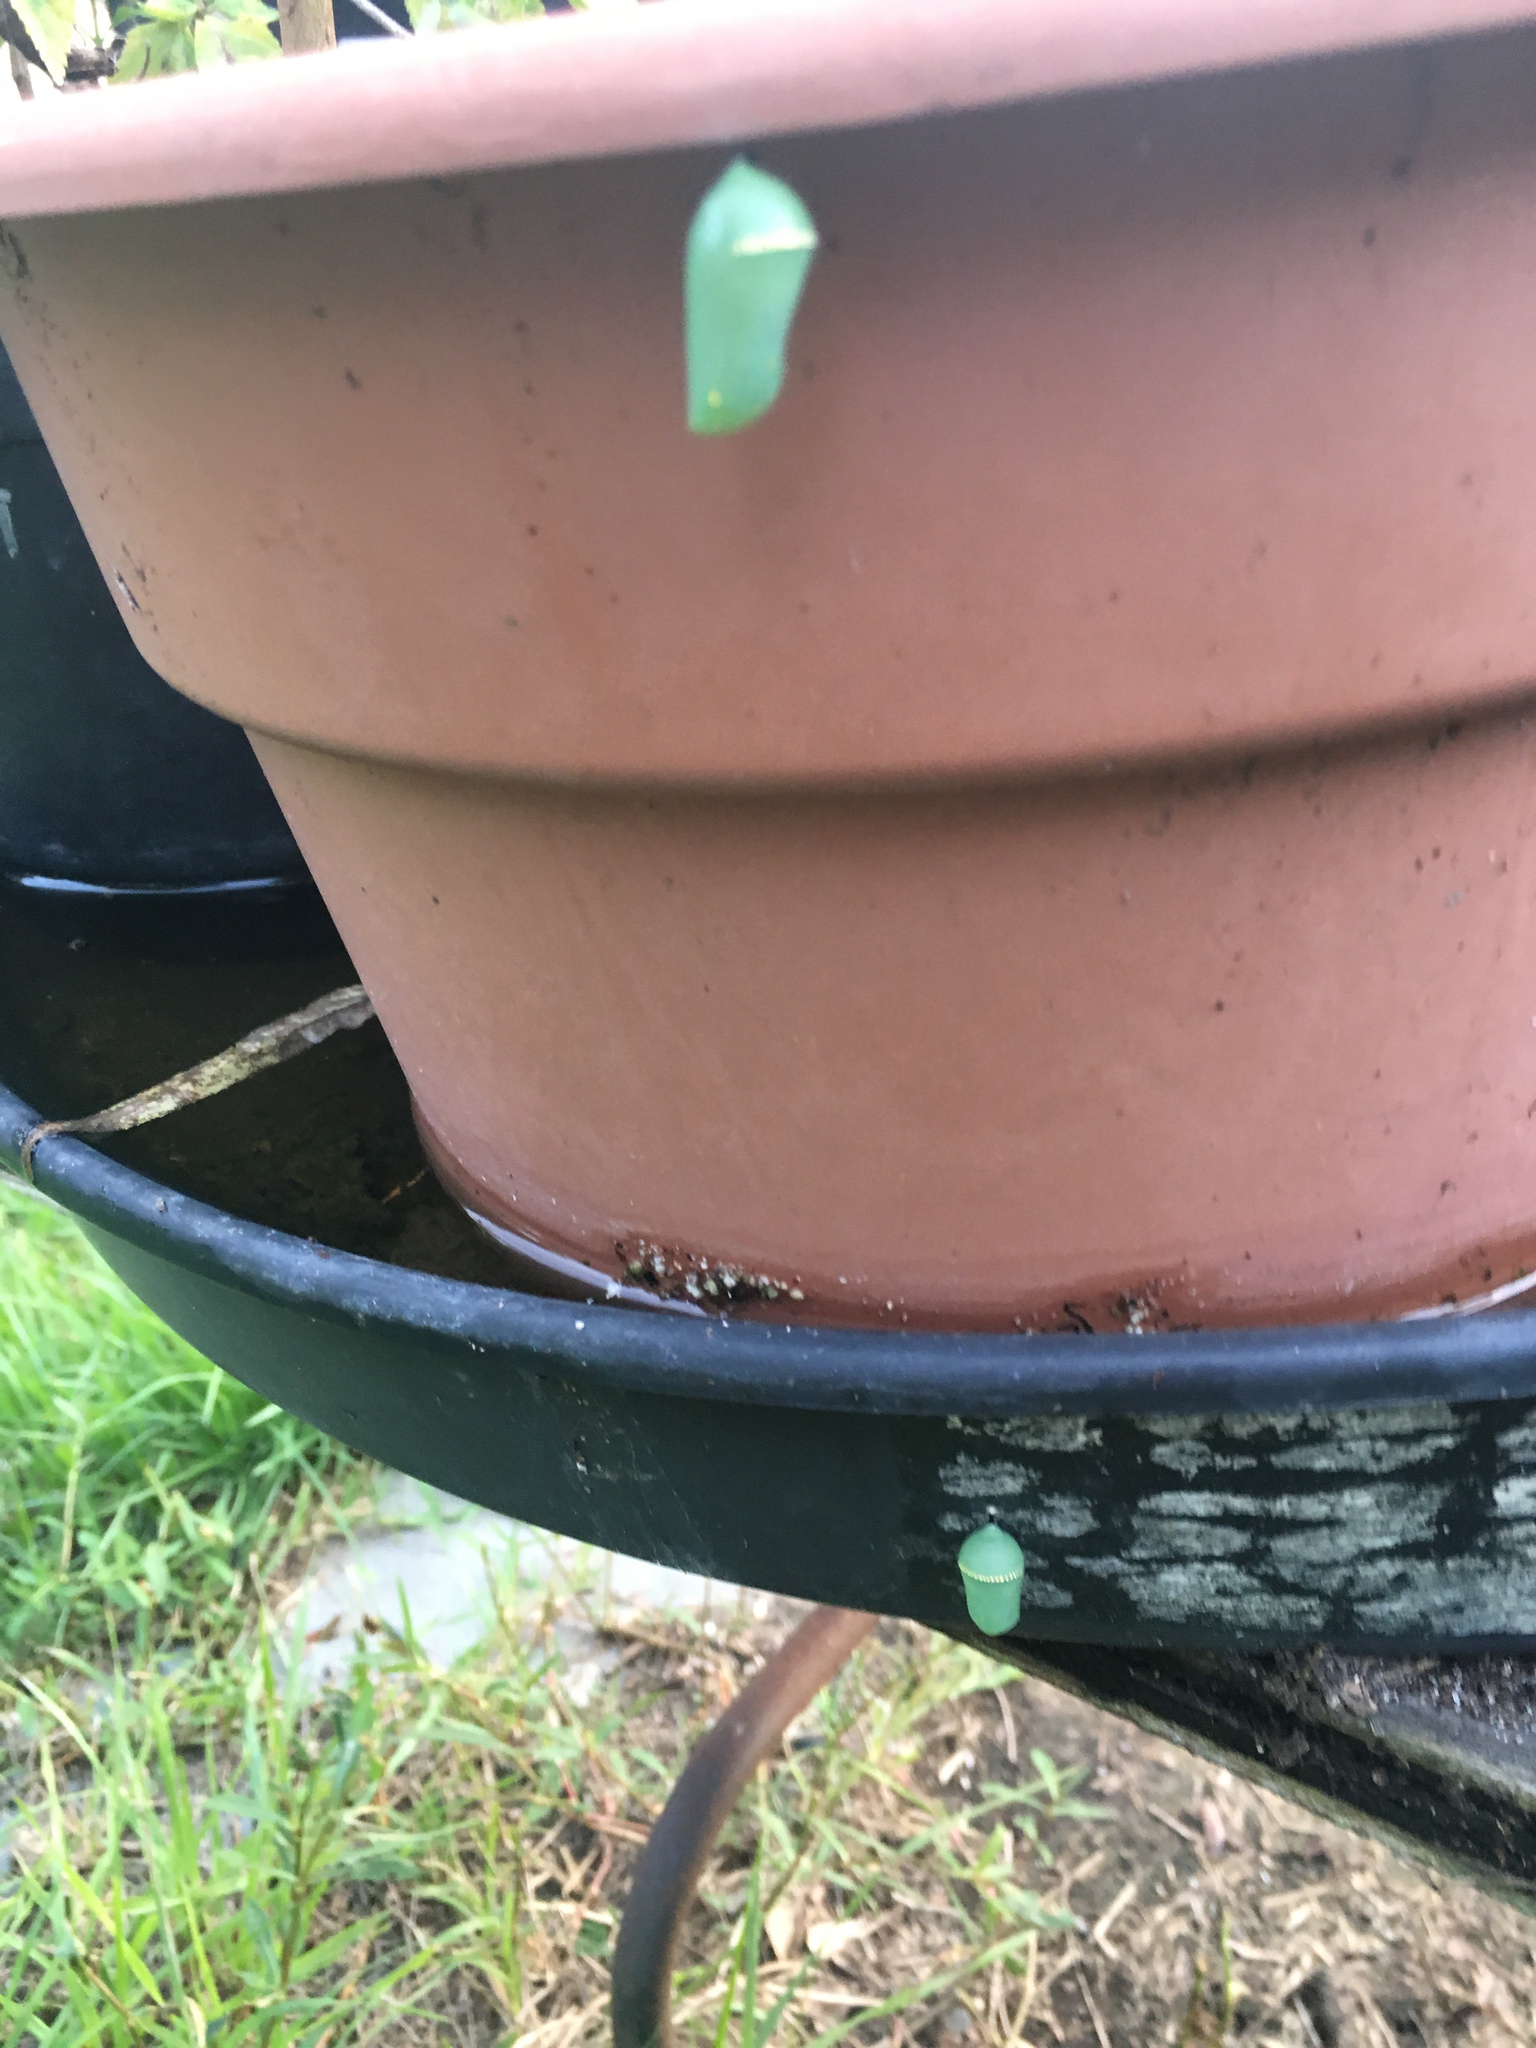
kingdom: Animalia
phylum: Arthropoda
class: Insecta
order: Lepidoptera
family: Nymphalidae
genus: Danaus
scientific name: Danaus plexippus
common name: Monarch
